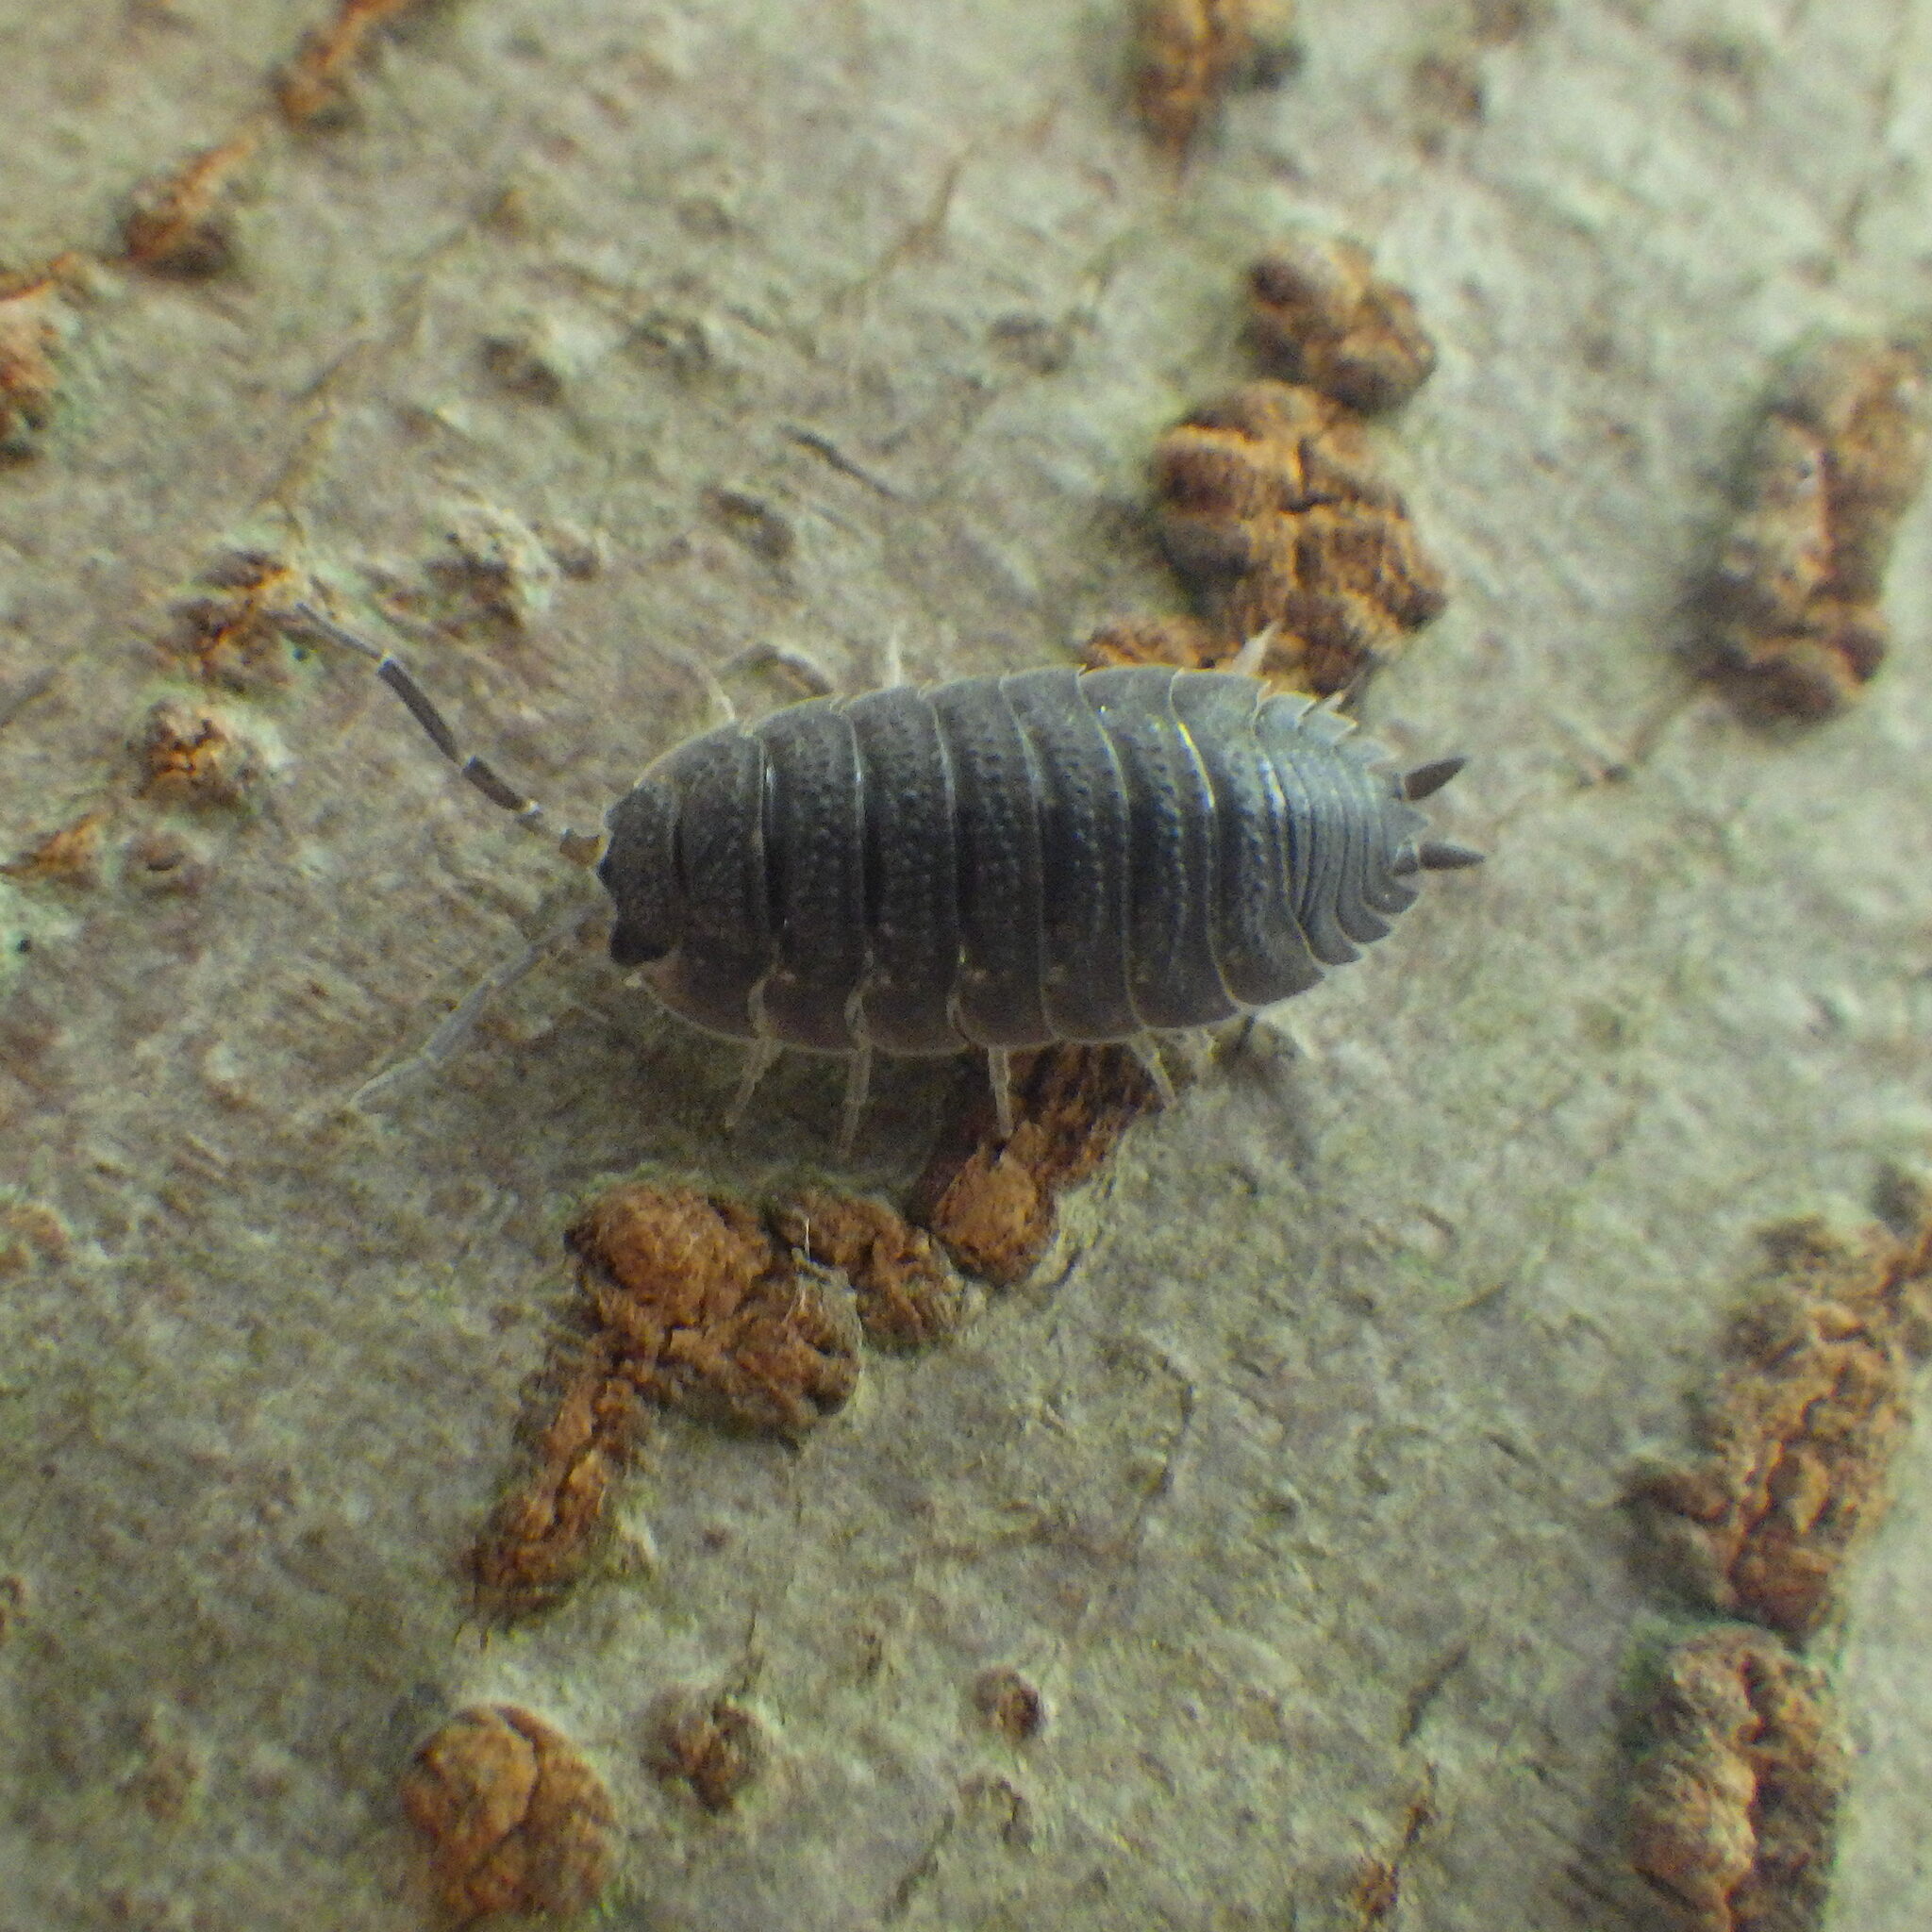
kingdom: Animalia
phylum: Arthropoda
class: Malacostraca
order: Isopoda
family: Porcellionidae
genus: Porcellio
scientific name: Porcellio scaber
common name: Common rough woodlouse
